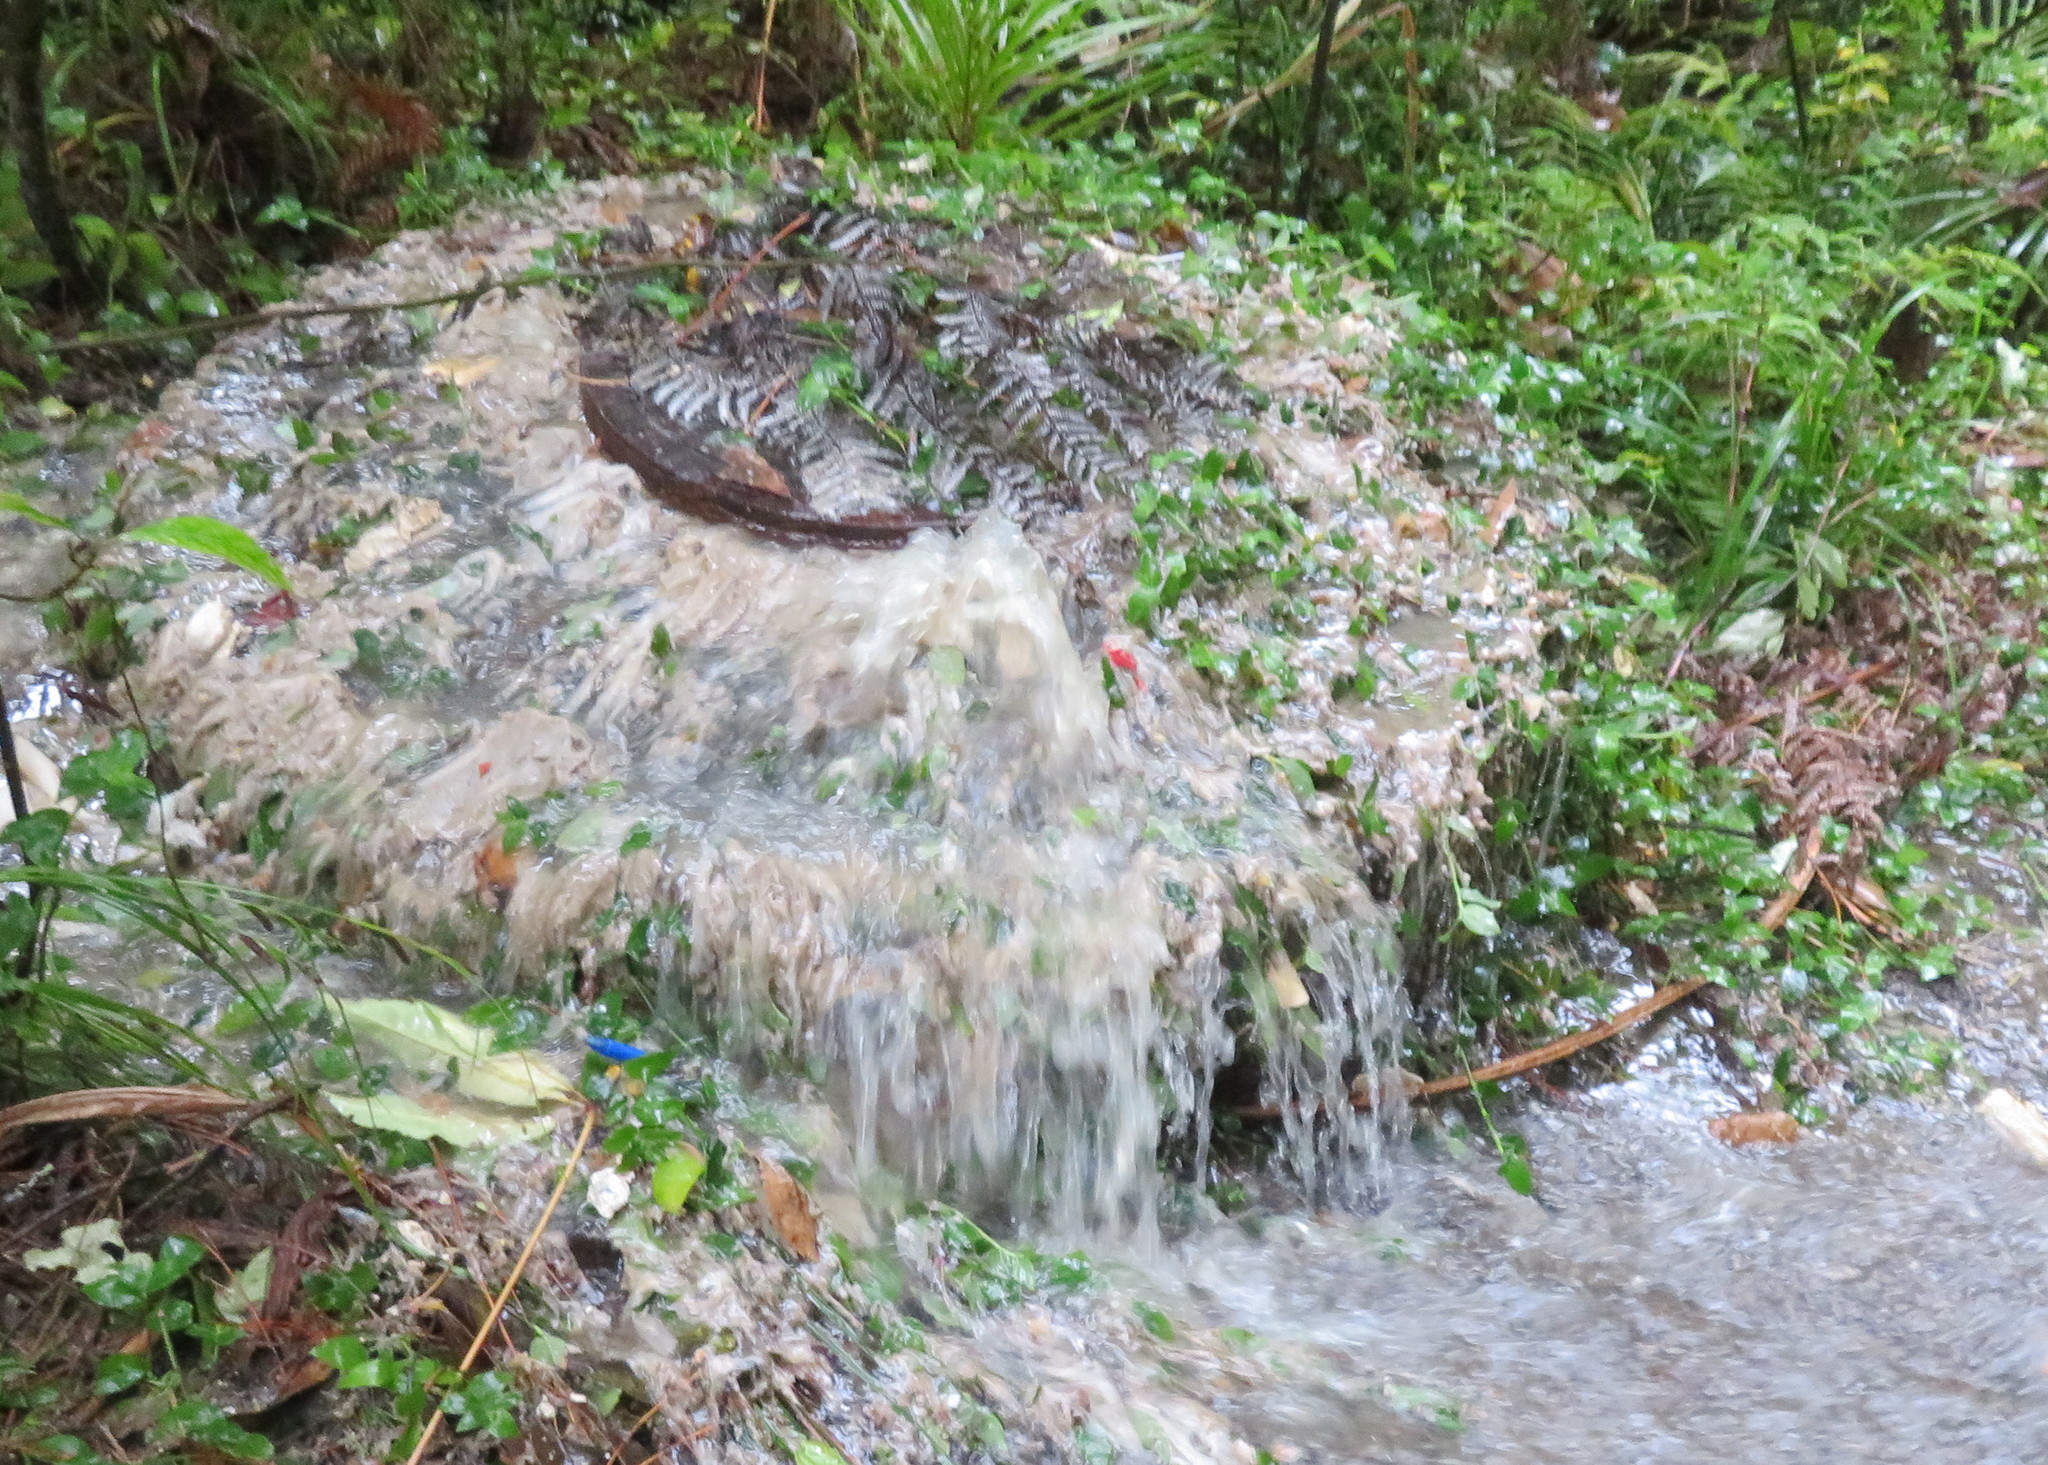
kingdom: Plantae
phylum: Tracheophyta
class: Liliopsida
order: Commelinales
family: Commelinaceae
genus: Tradescantia
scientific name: Tradescantia fluminensis
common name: Wandering-jew
